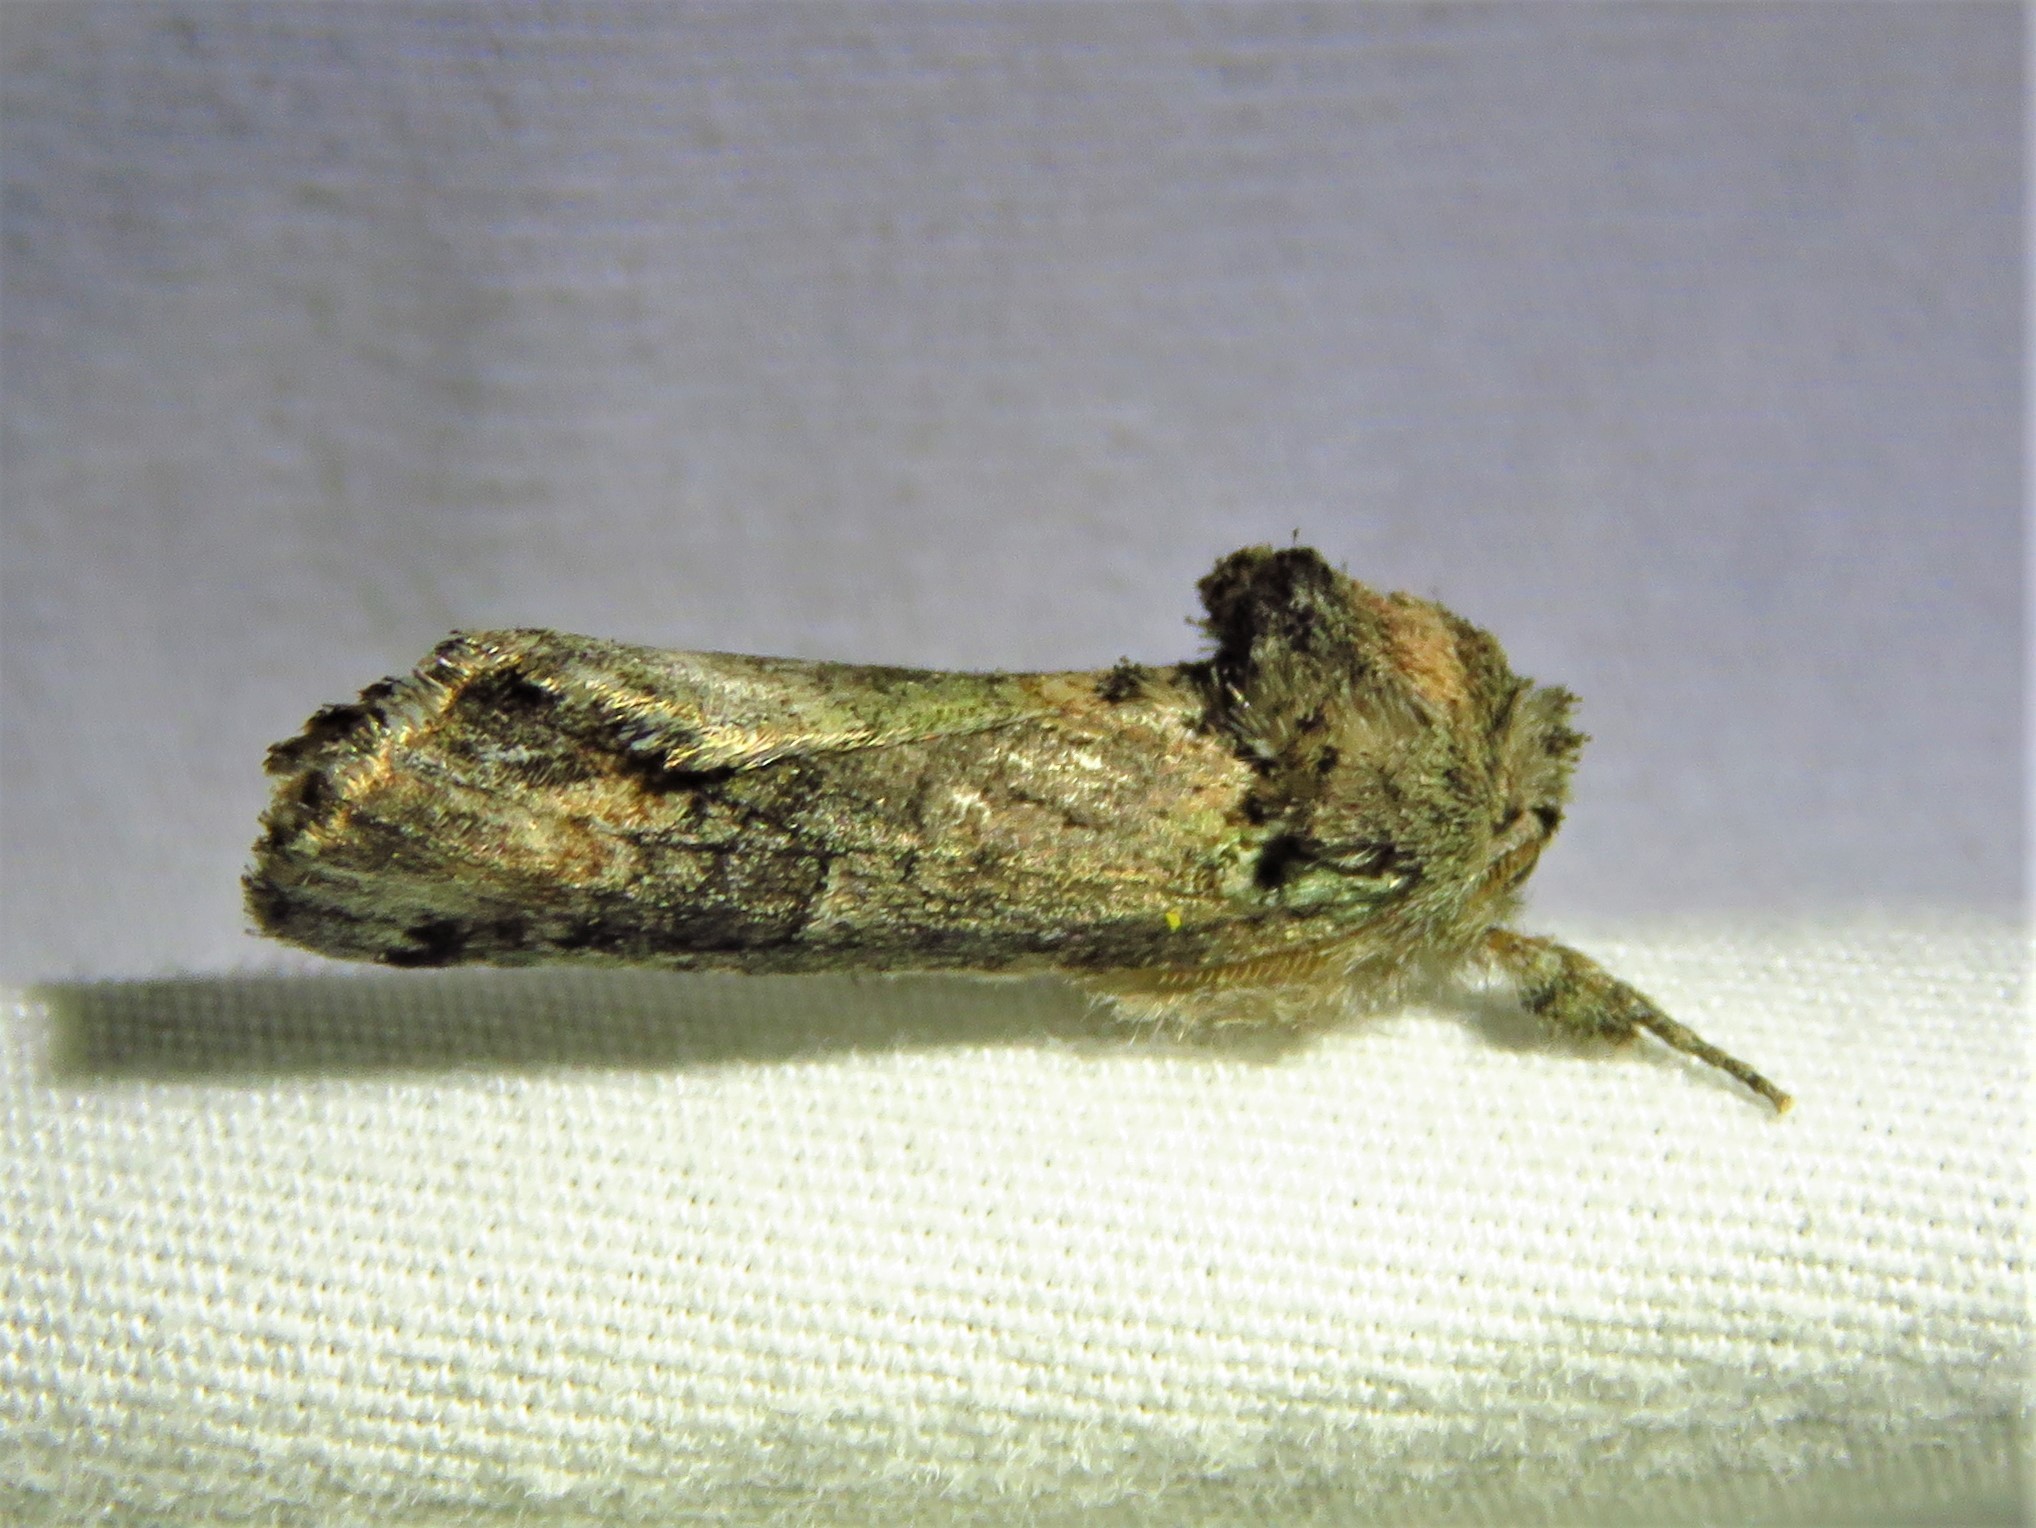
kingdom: Animalia
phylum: Arthropoda
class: Insecta
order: Lepidoptera
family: Notodontidae
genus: Schizura
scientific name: Schizura
